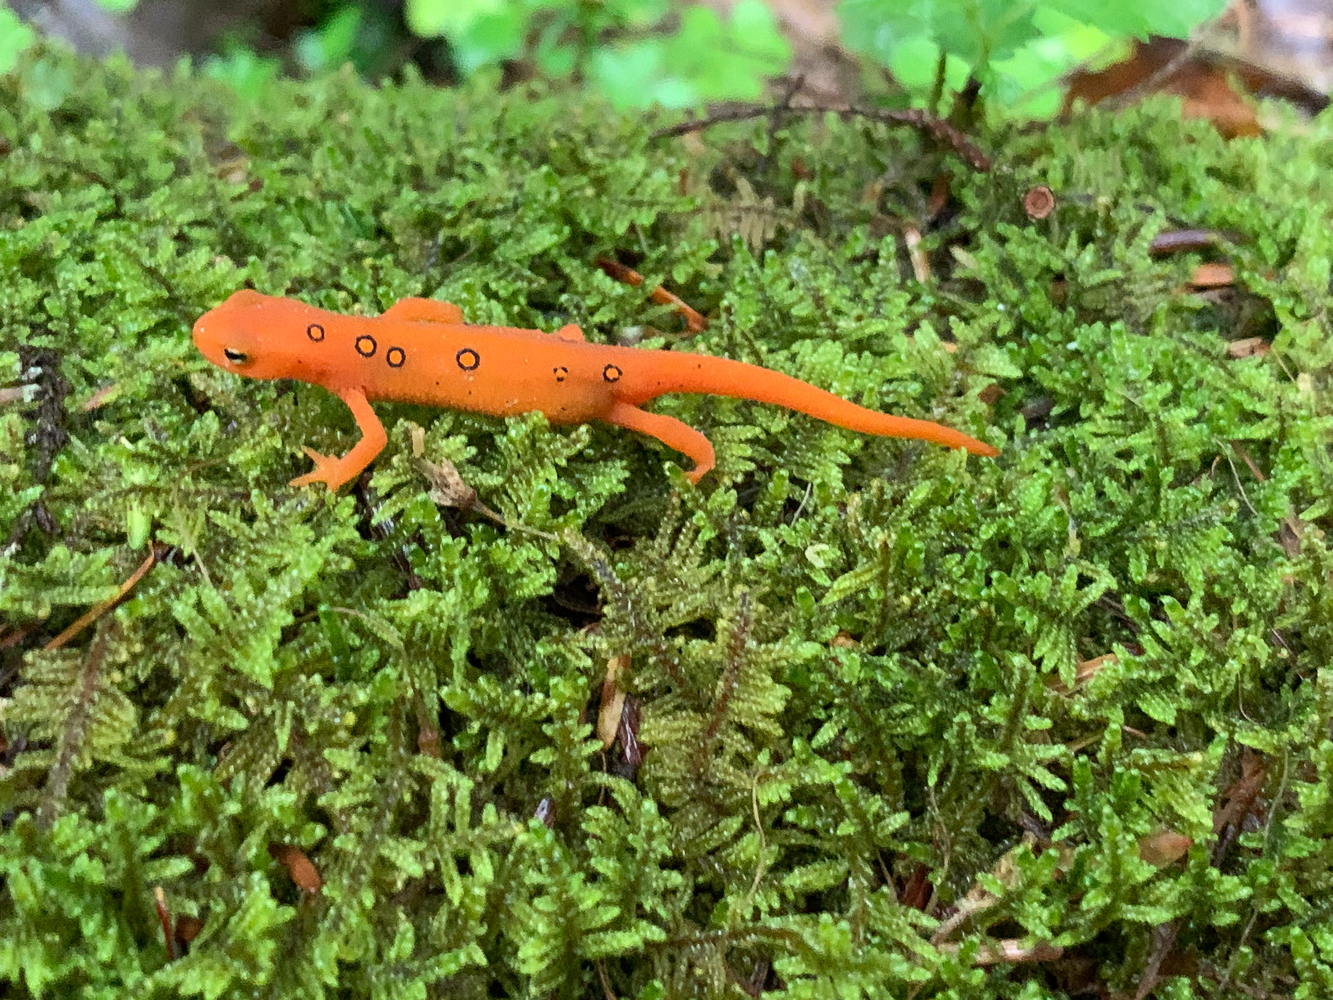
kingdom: Animalia
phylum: Chordata
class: Amphibia
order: Caudata
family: Salamandridae
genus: Notophthalmus
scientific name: Notophthalmus viridescens
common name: Eastern newt
